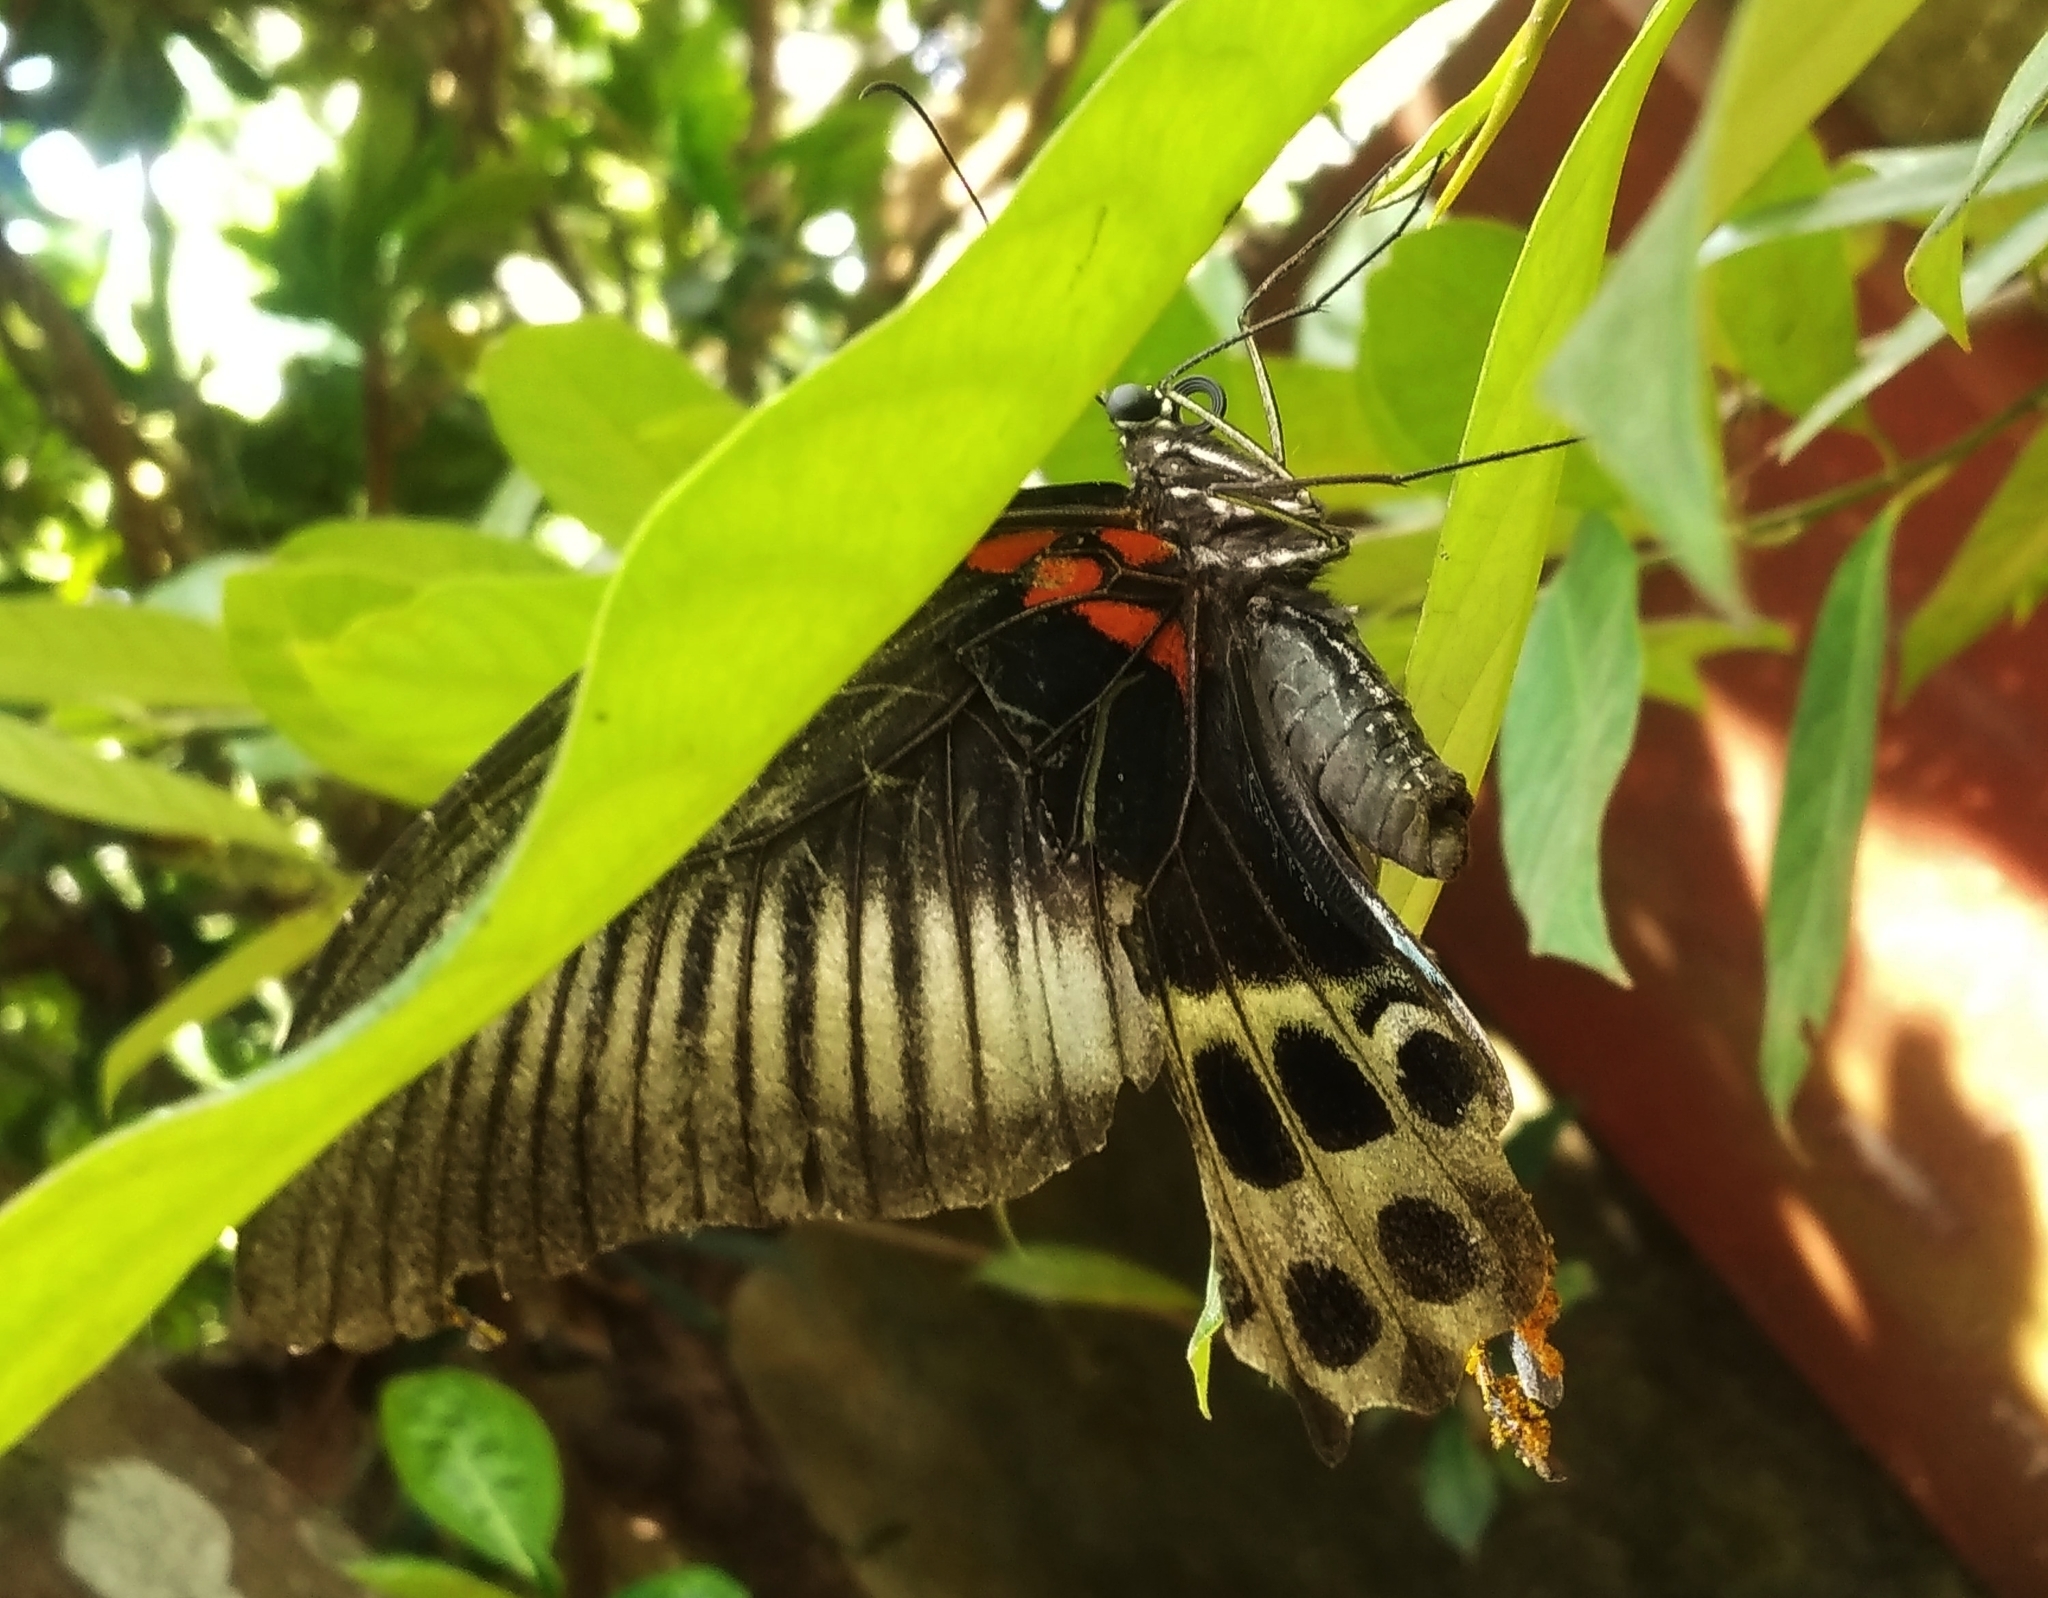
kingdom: Animalia
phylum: Arthropoda
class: Insecta
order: Lepidoptera
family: Papilionidae
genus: Papilio
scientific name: Papilio memnon
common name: Great mormon
